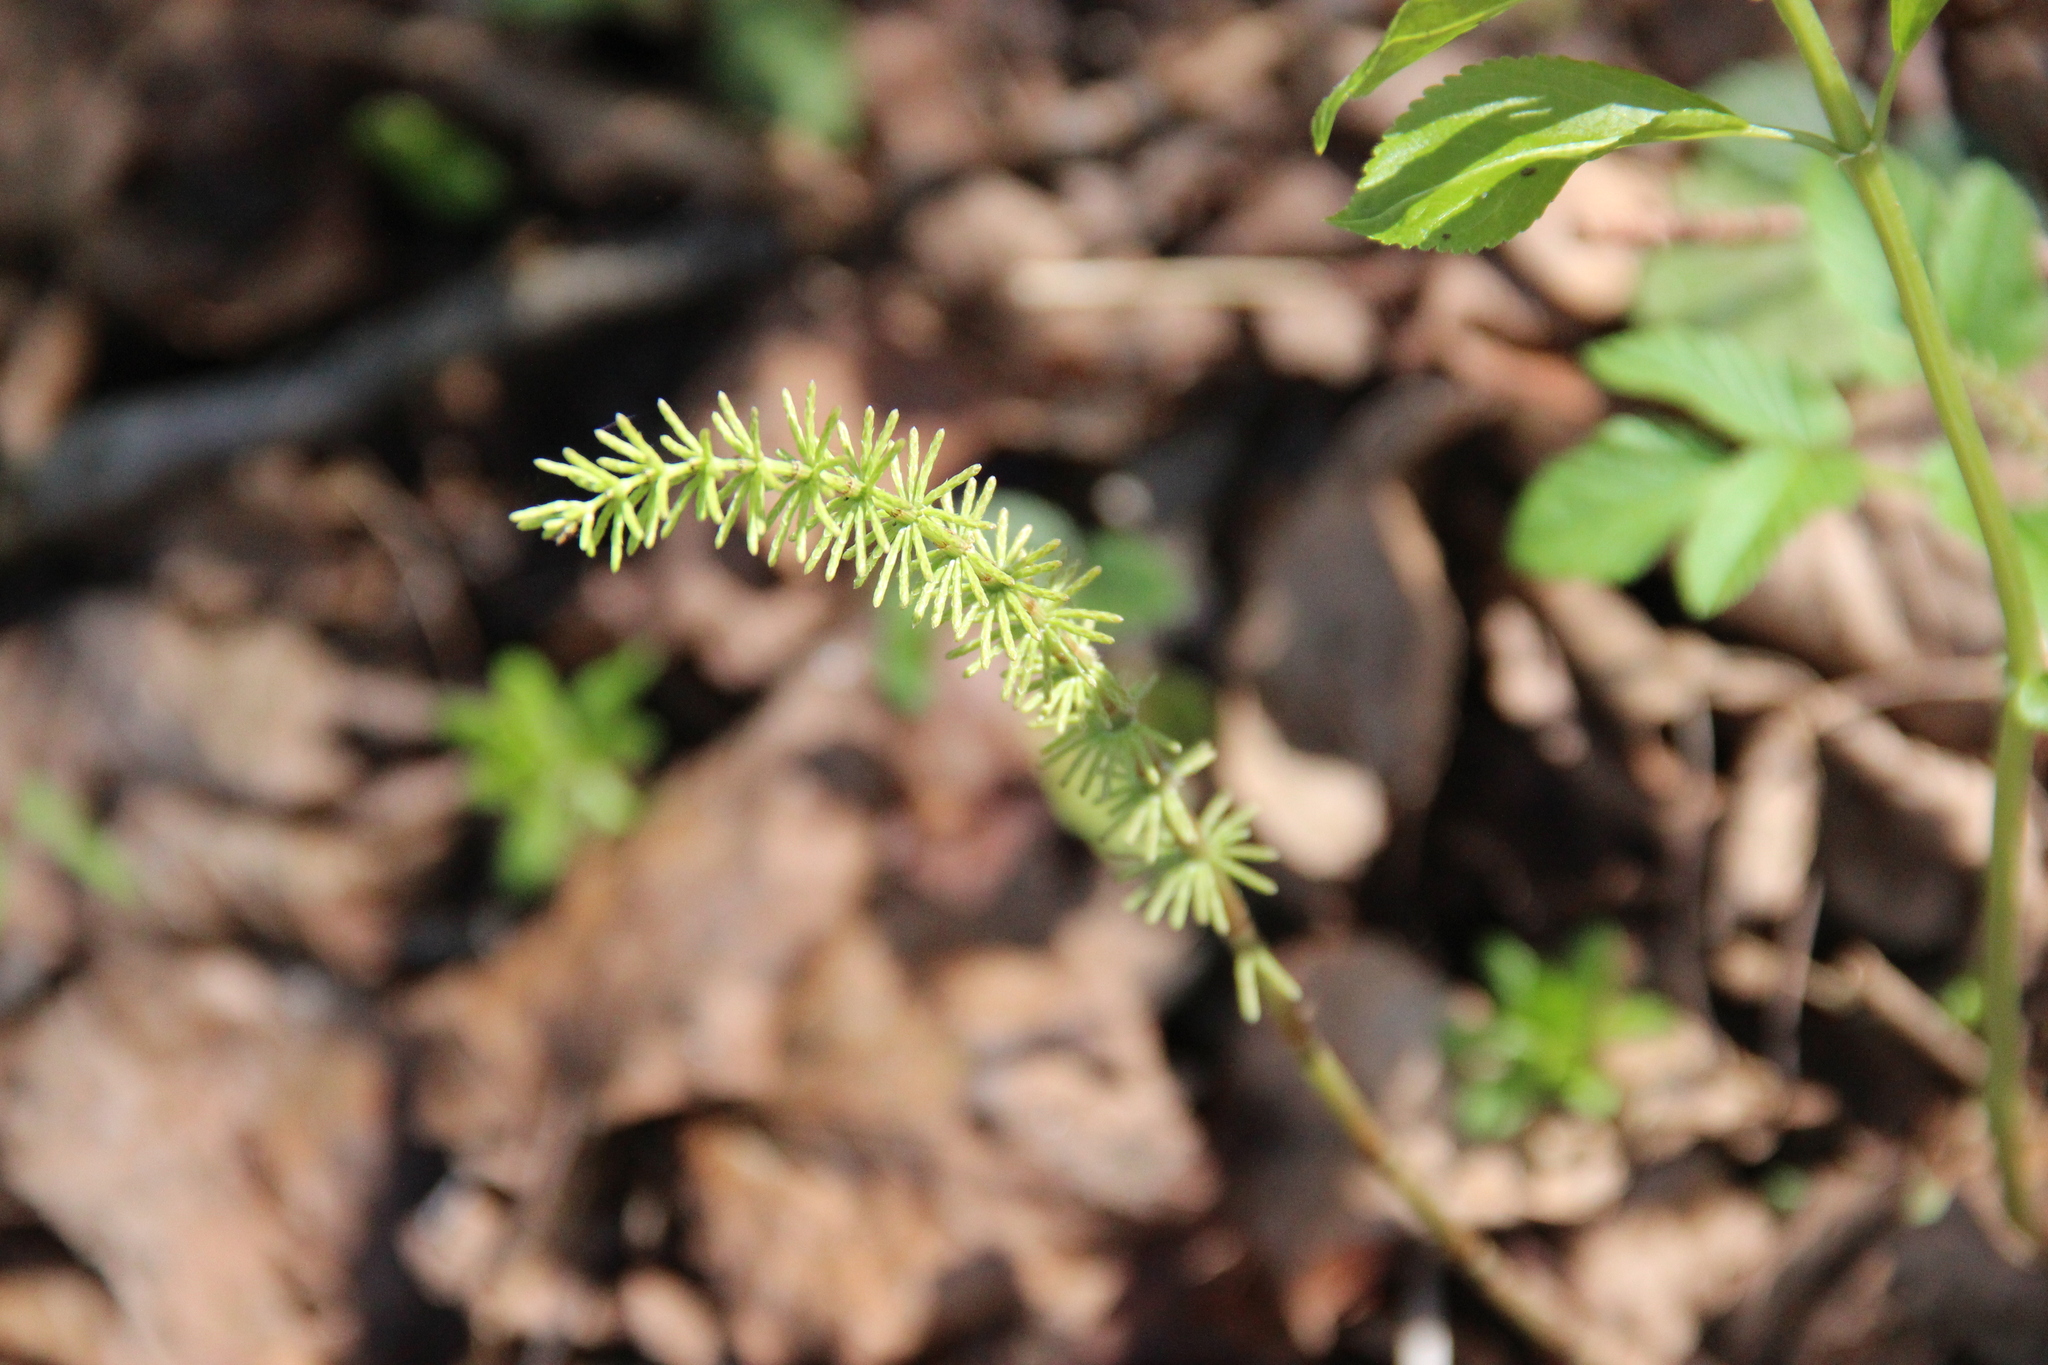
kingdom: Plantae
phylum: Tracheophyta
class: Polypodiopsida
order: Equisetales
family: Equisetaceae
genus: Equisetum
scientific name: Equisetum pratense
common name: Meadow horsetail
